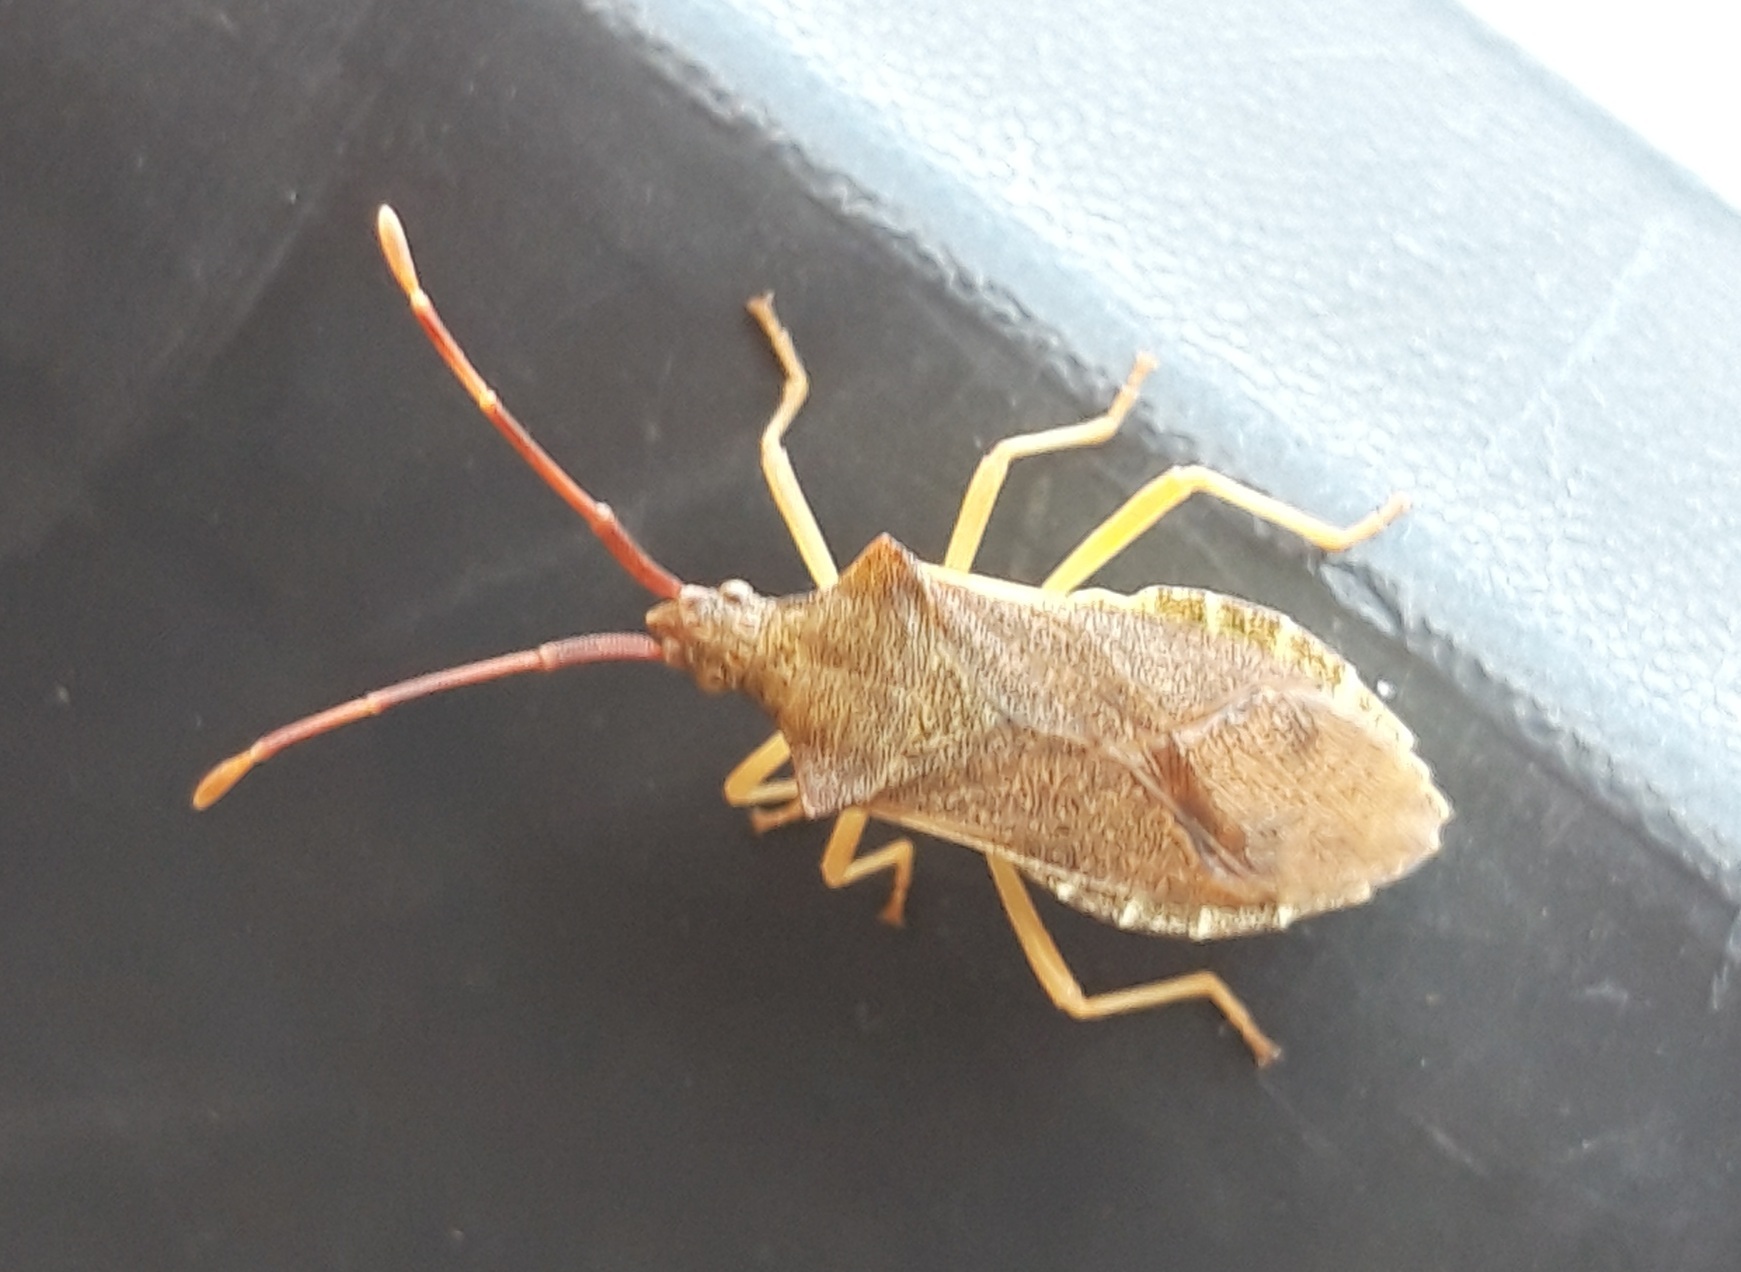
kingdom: Animalia
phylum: Arthropoda
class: Insecta
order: Hemiptera
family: Coreidae
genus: Gonocerus
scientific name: Gonocerus acuteangulatus
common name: Box bug
